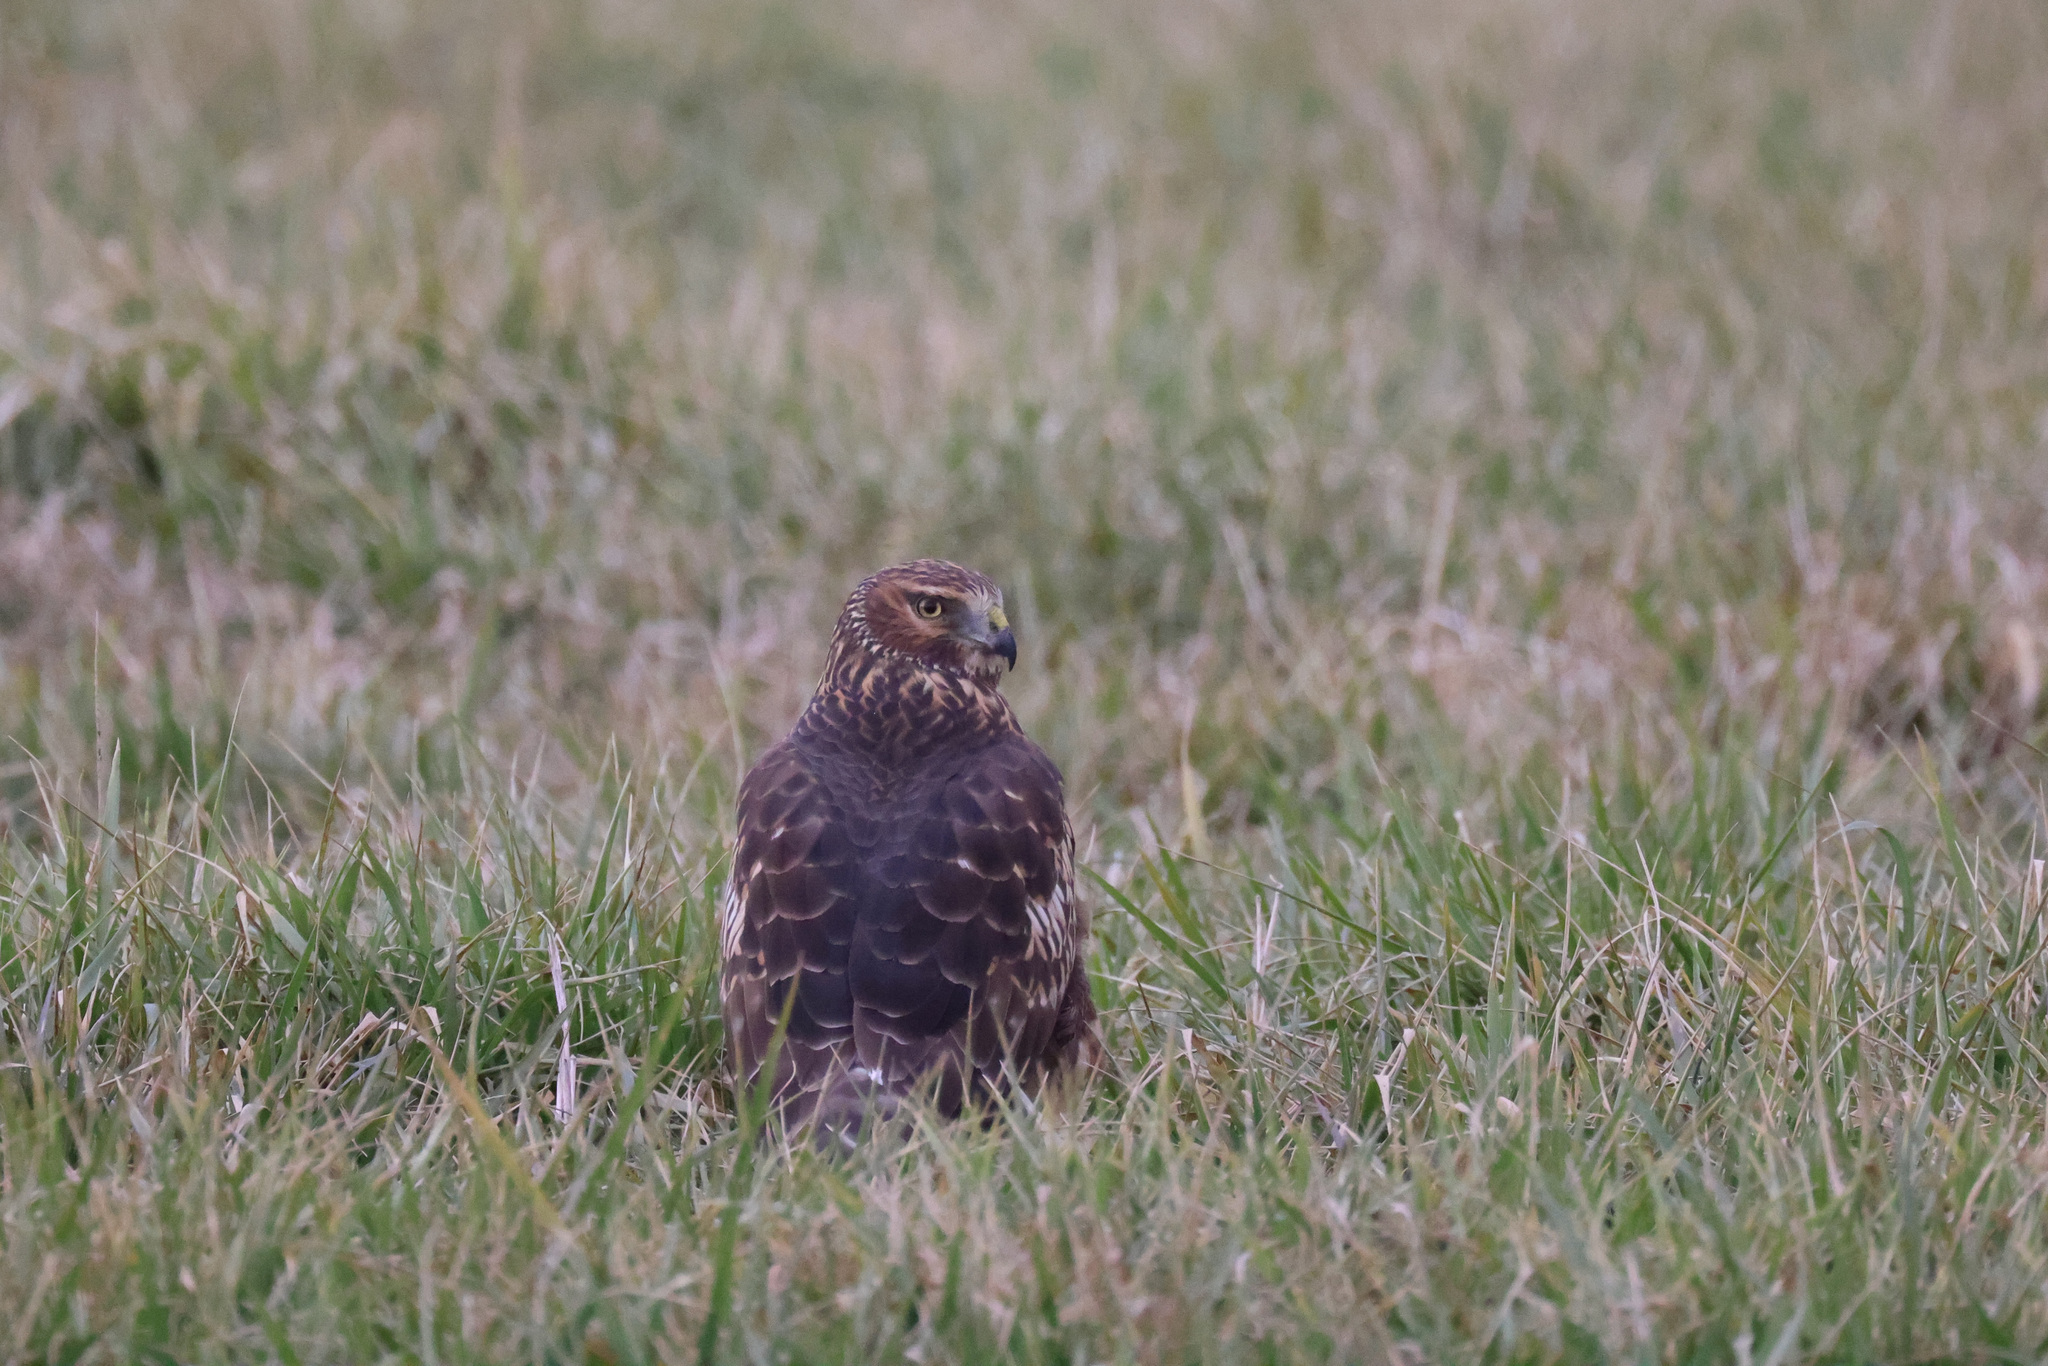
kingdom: Animalia
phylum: Chordata
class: Aves
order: Accipitriformes
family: Accipitridae
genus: Circus
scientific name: Circus cyaneus
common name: Hen harrier
